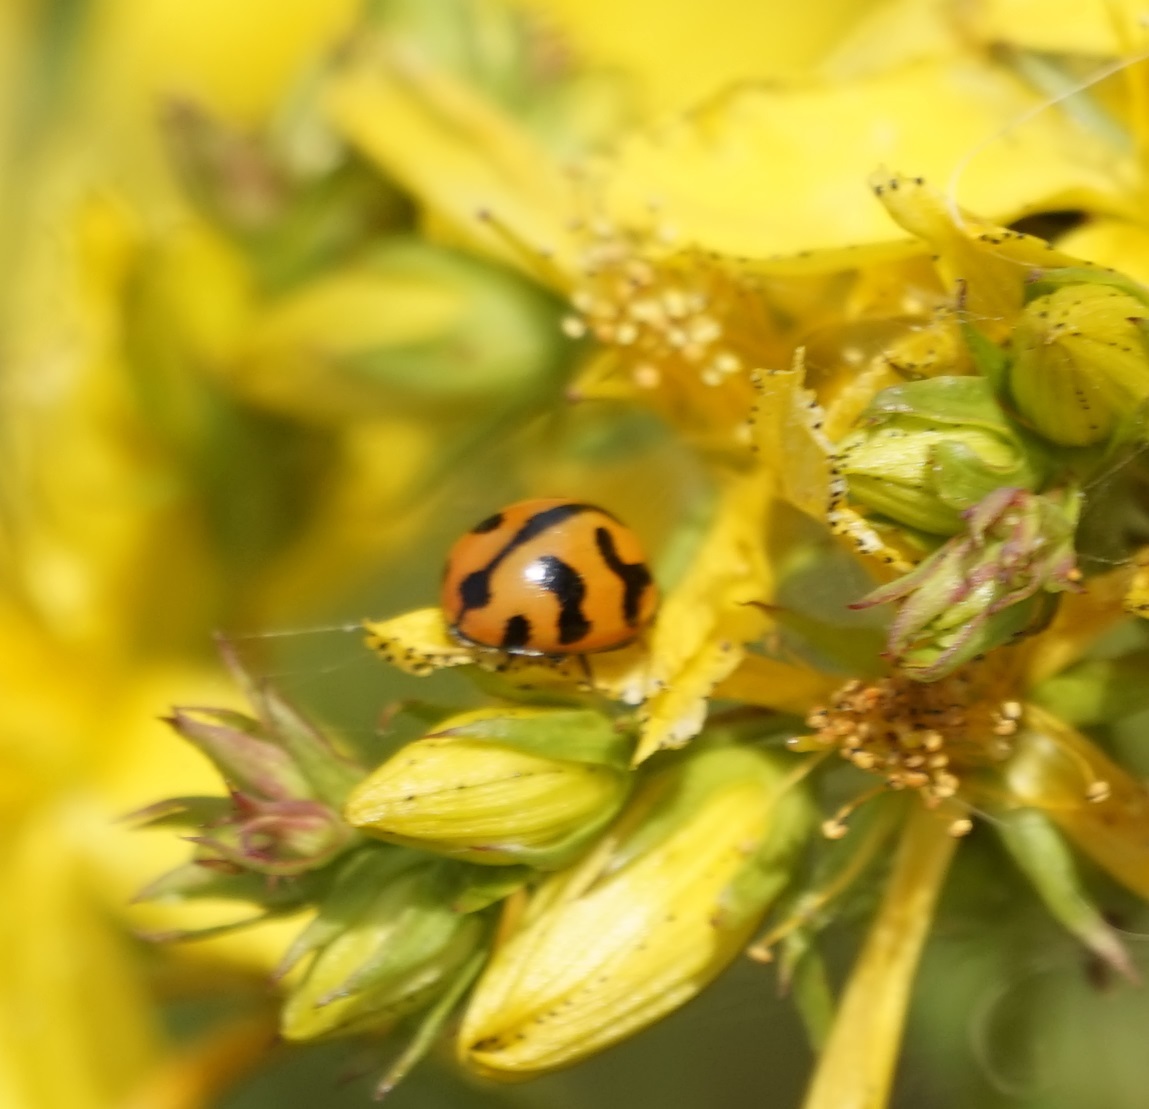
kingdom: Animalia
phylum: Arthropoda
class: Insecta
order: Coleoptera
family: Coccinellidae
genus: Coccinella
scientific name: Coccinella transversalis
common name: Transverse lady beetle
